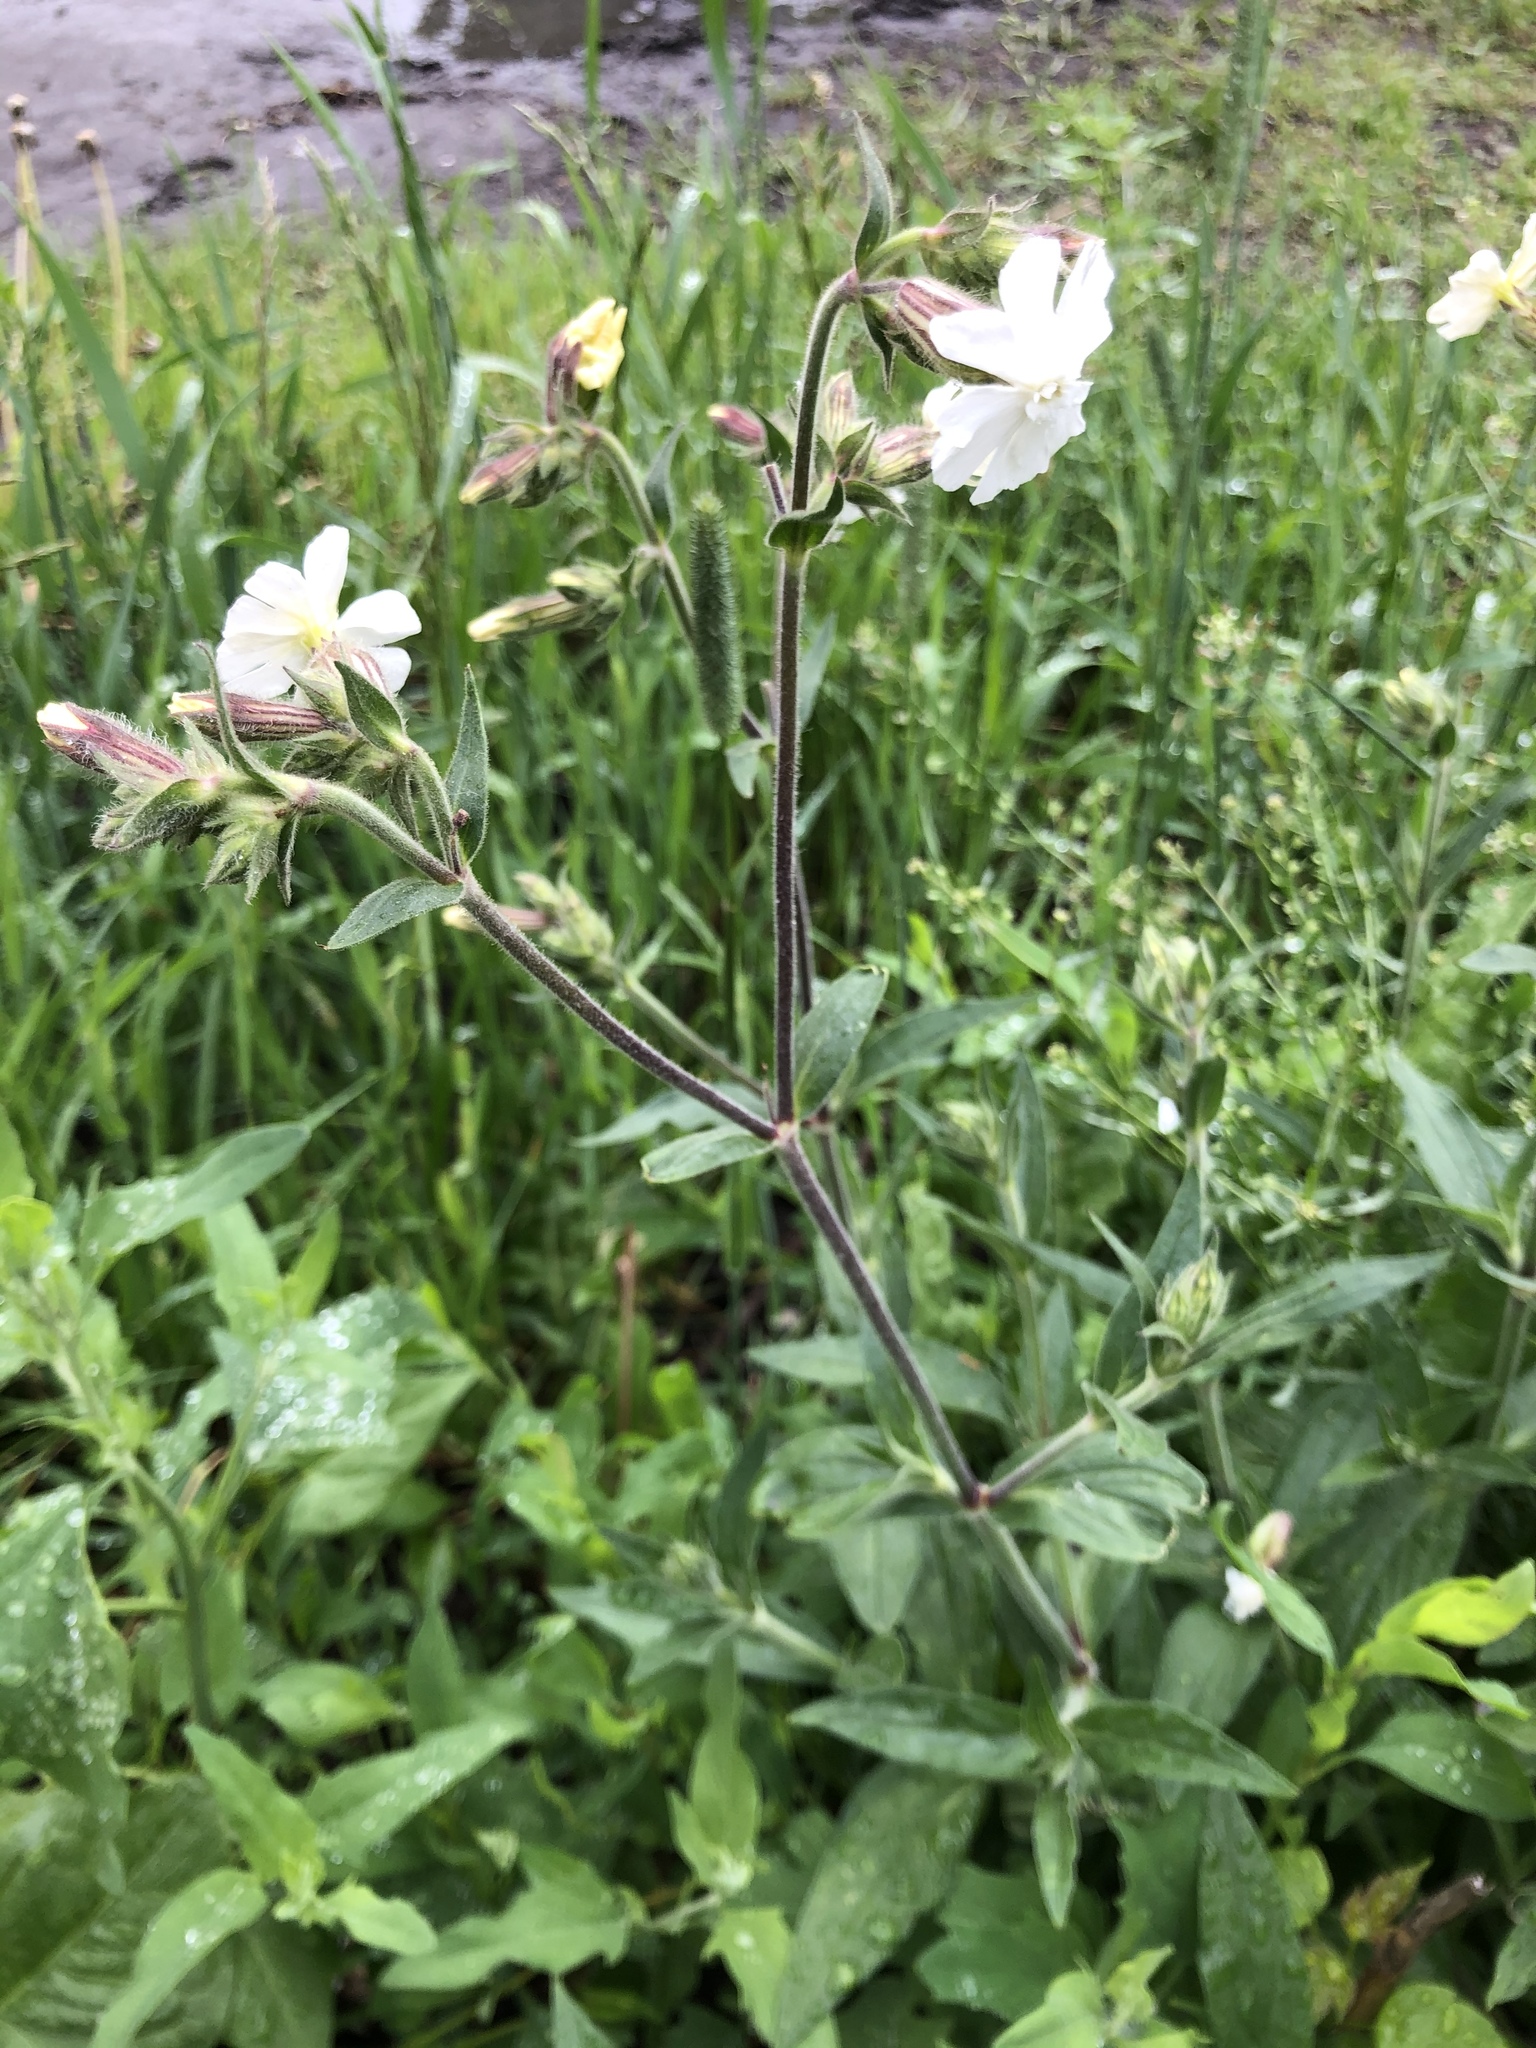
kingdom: Plantae
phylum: Tracheophyta
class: Magnoliopsida
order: Caryophyllales
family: Caryophyllaceae
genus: Silene
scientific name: Silene latifolia
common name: White campion
